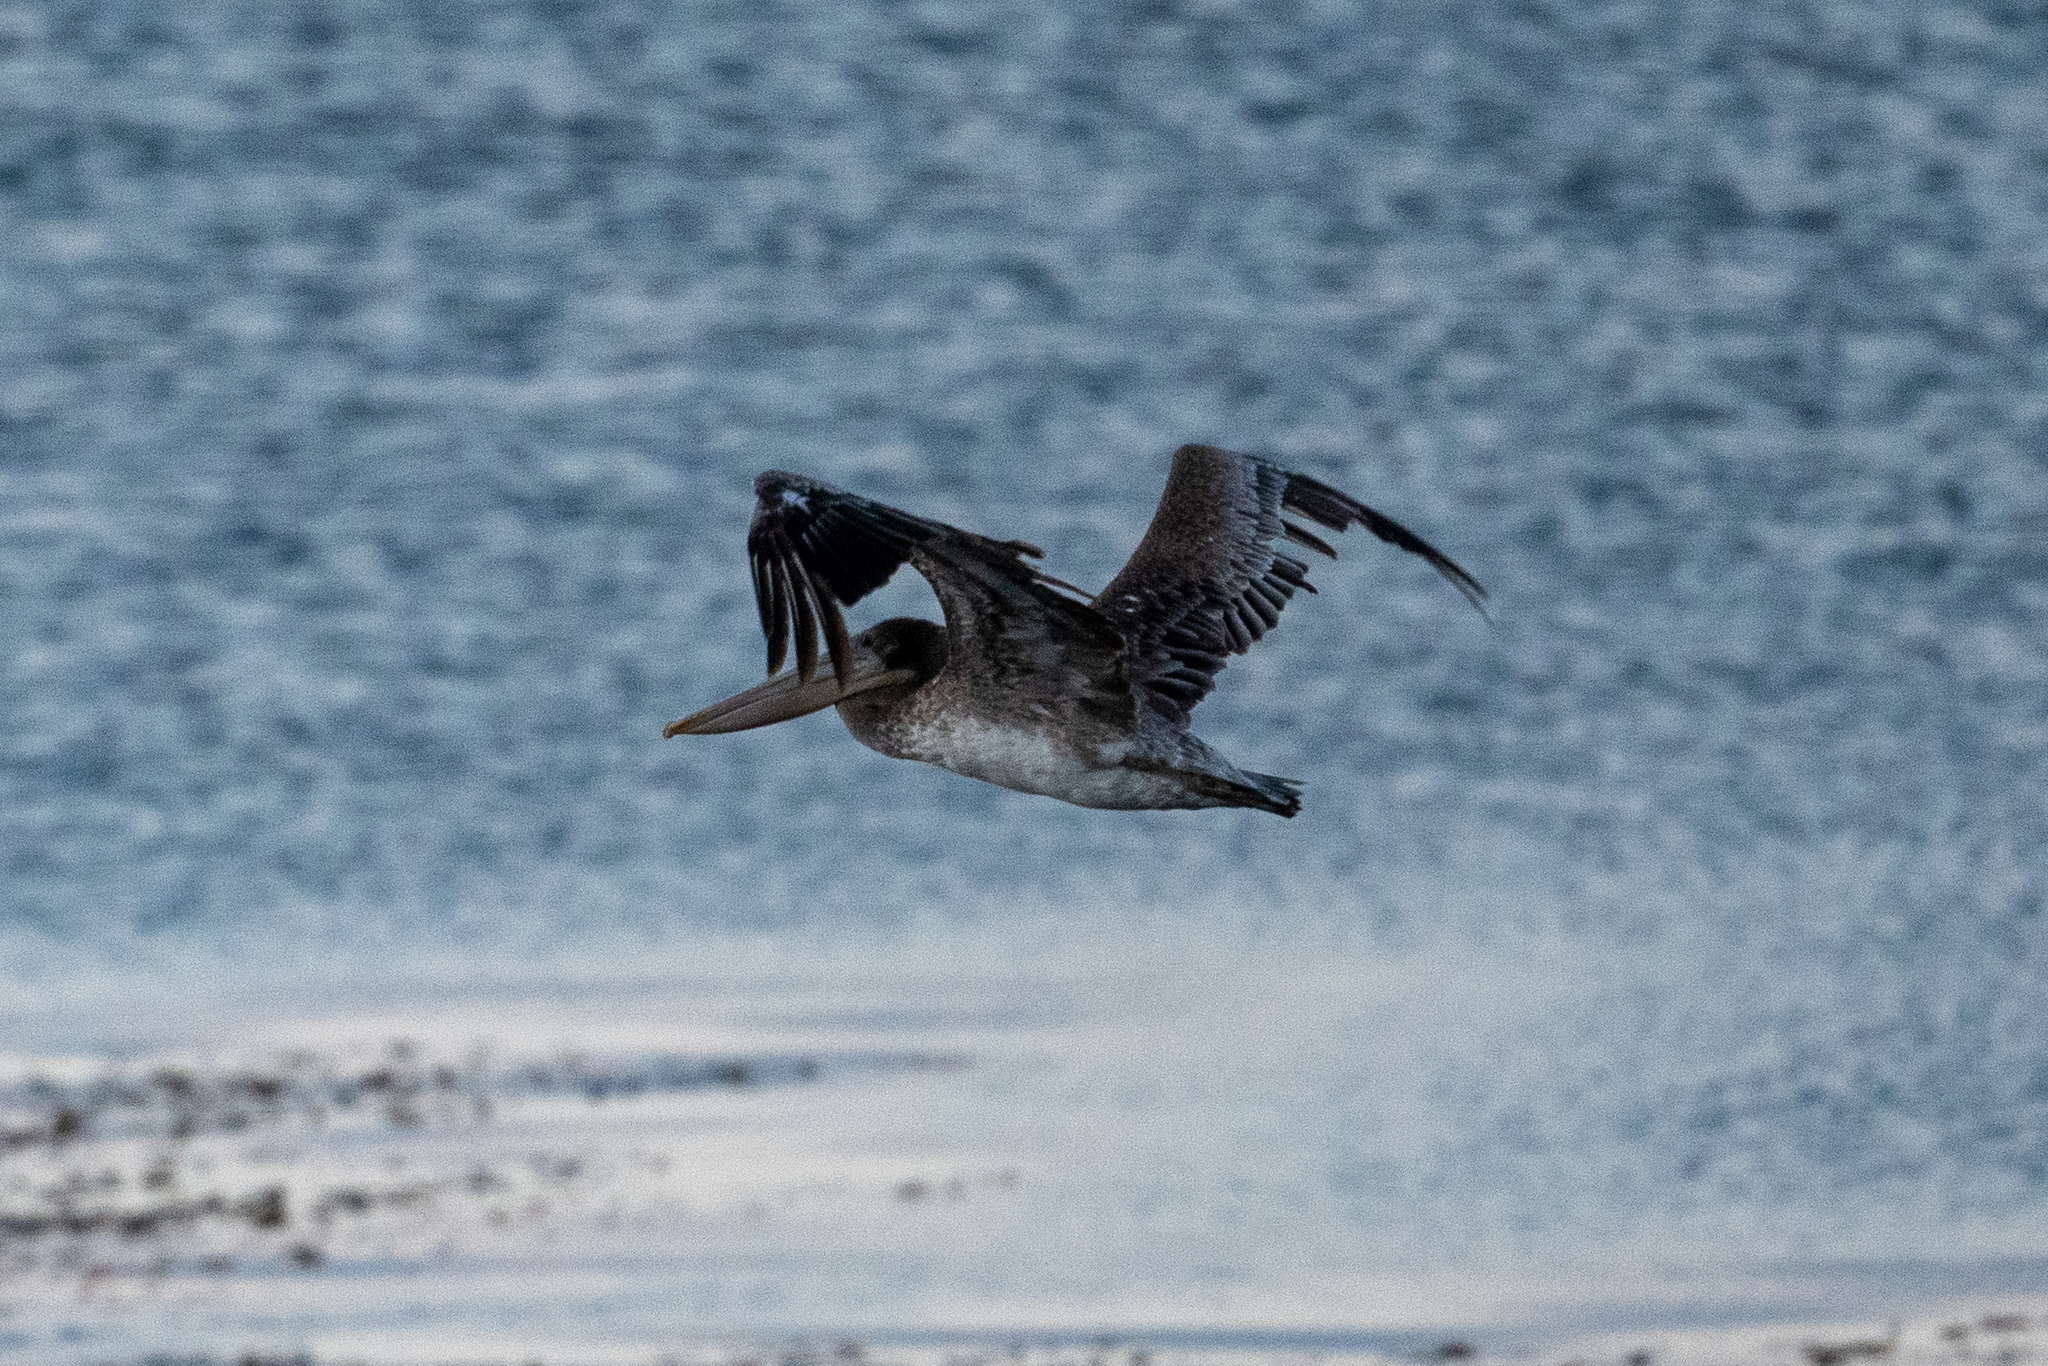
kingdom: Animalia
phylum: Chordata
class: Aves
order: Pelecaniformes
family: Pelecanidae
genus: Pelecanus
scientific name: Pelecanus occidentalis
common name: Brown pelican
